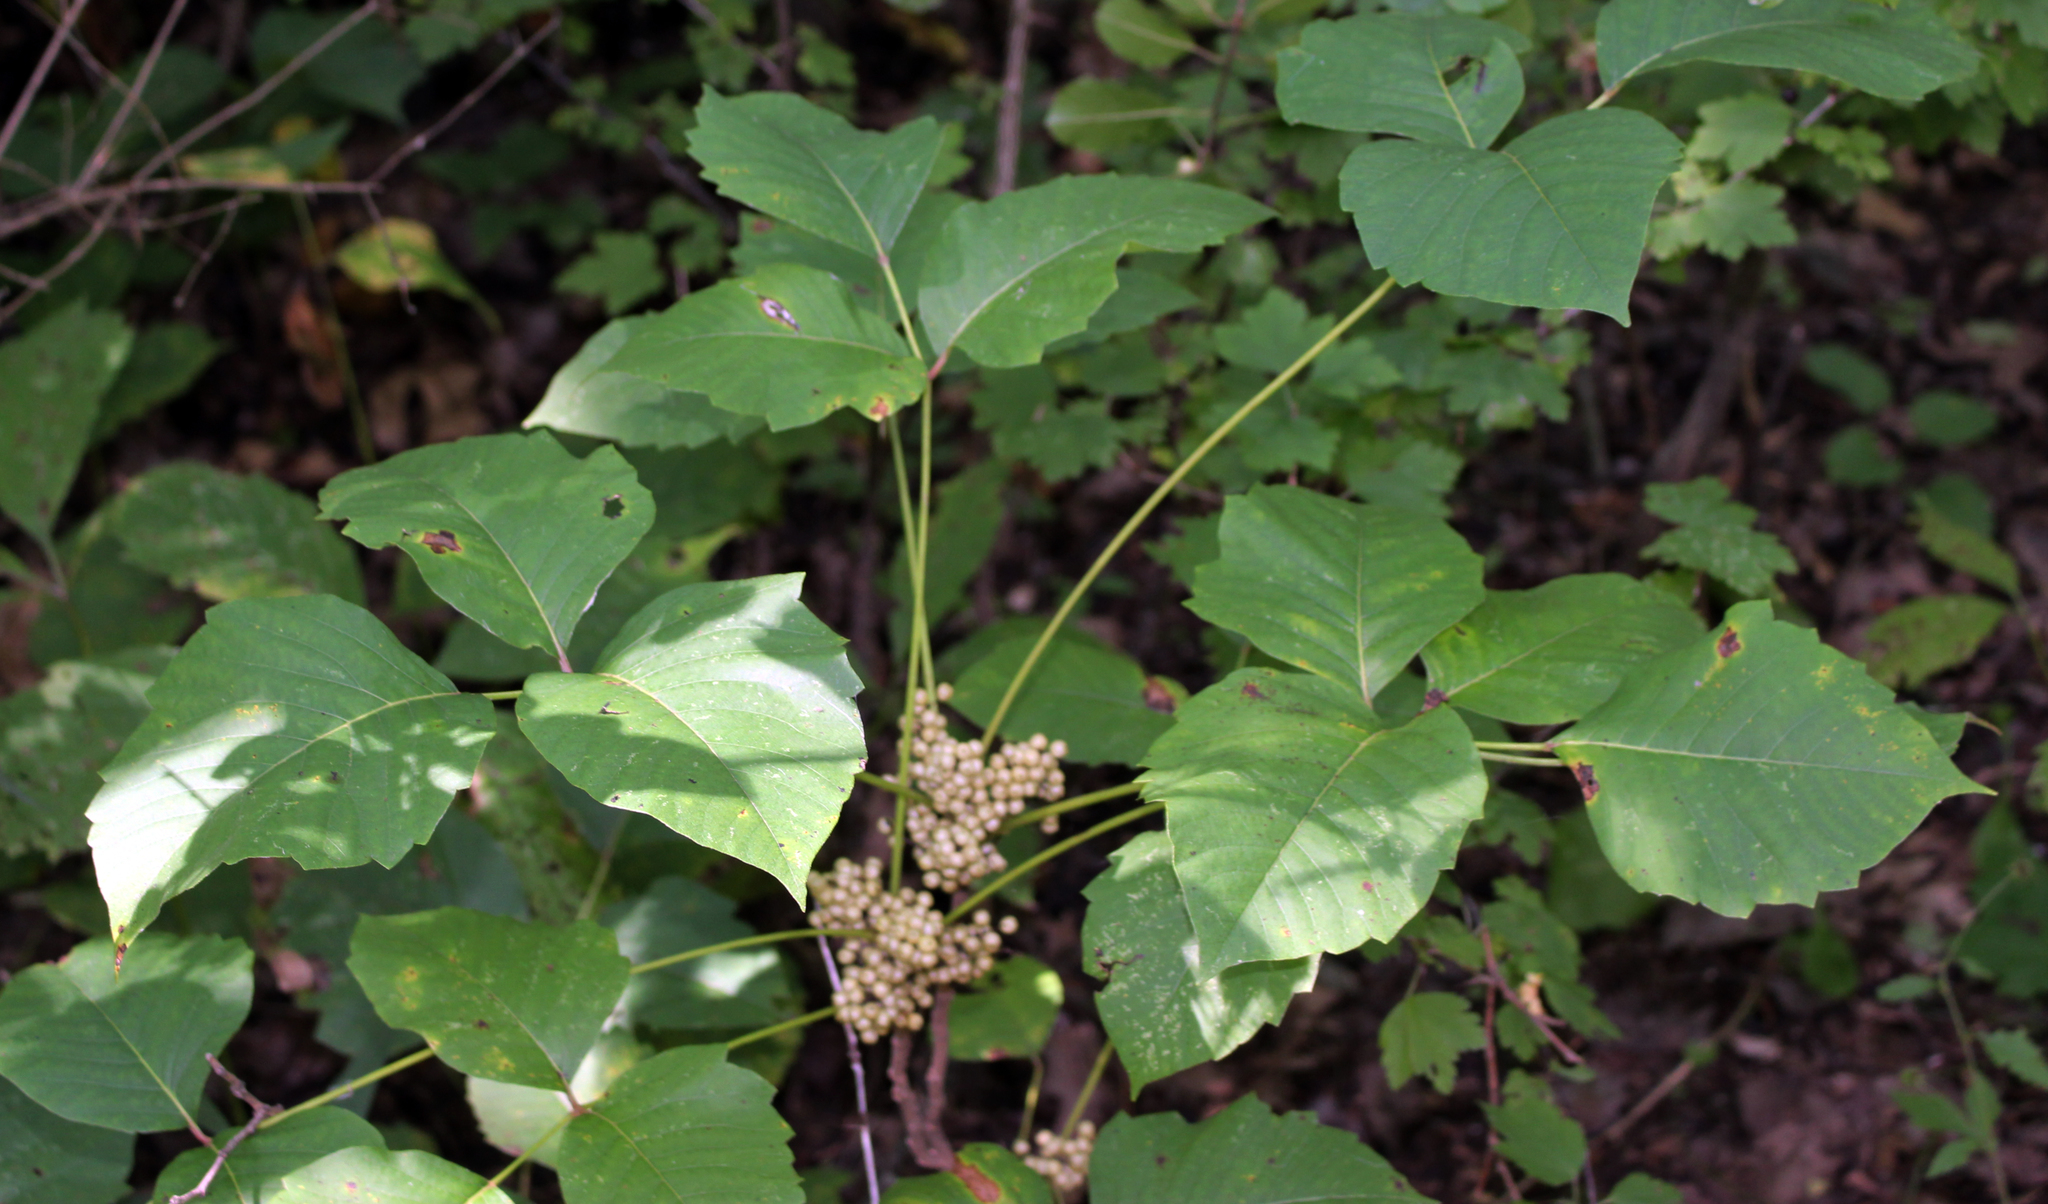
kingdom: Plantae
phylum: Tracheophyta
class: Magnoliopsida
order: Sapindales
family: Anacardiaceae
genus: Toxicodendron
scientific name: Toxicodendron rydbergii
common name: Rydberg's poison-ivy
